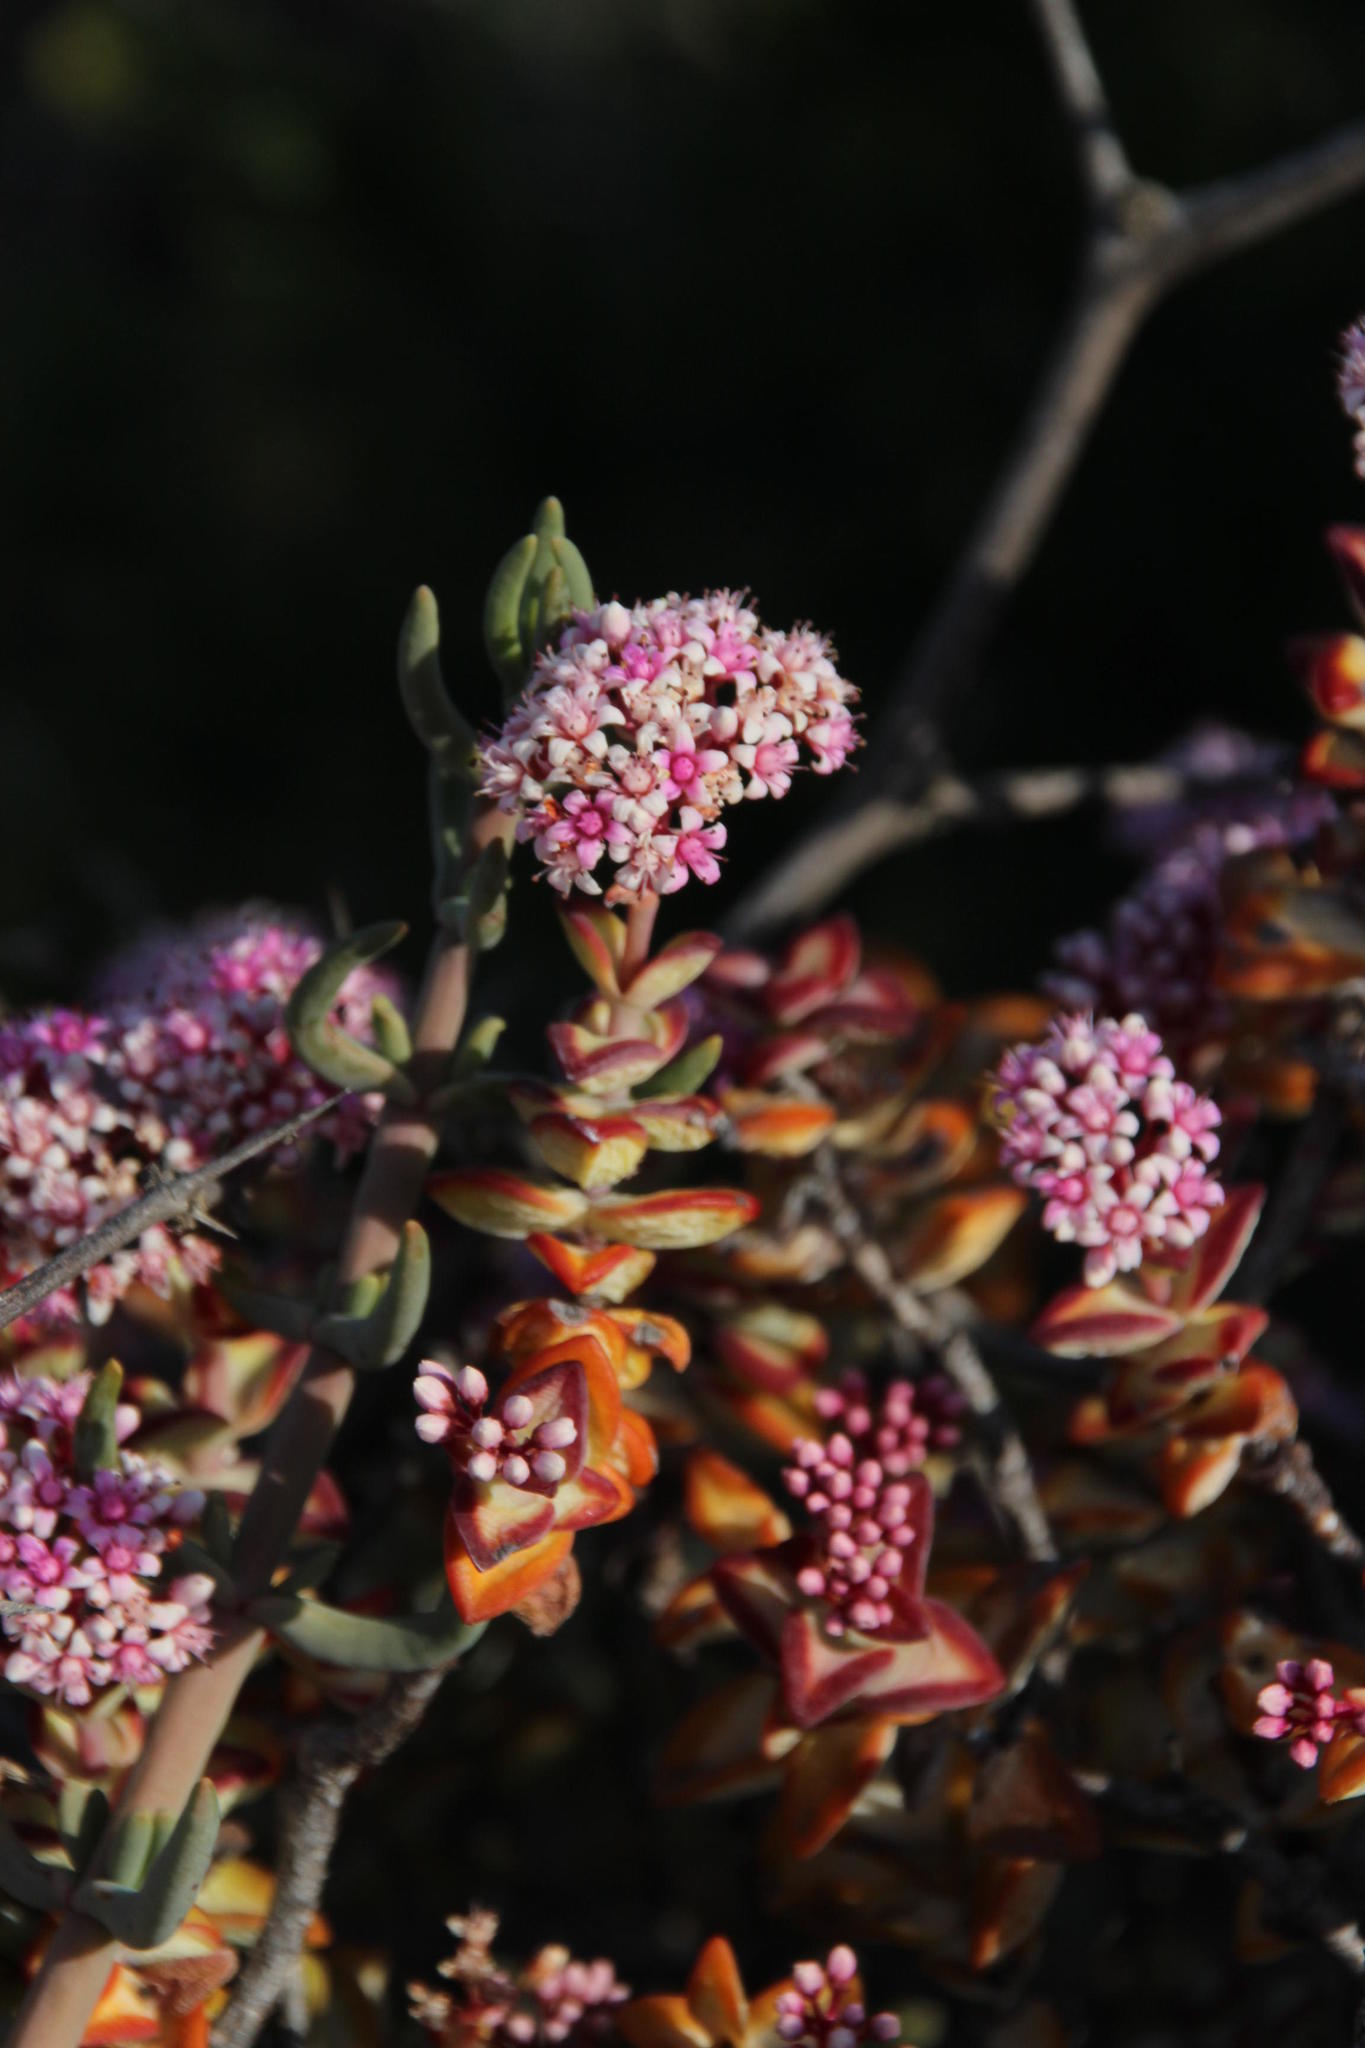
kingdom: Plantae
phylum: Tracheophyta
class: Magnoliopsida
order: Saxifragales
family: Crassulaceae
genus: Crassula
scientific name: Crassula rupestris
